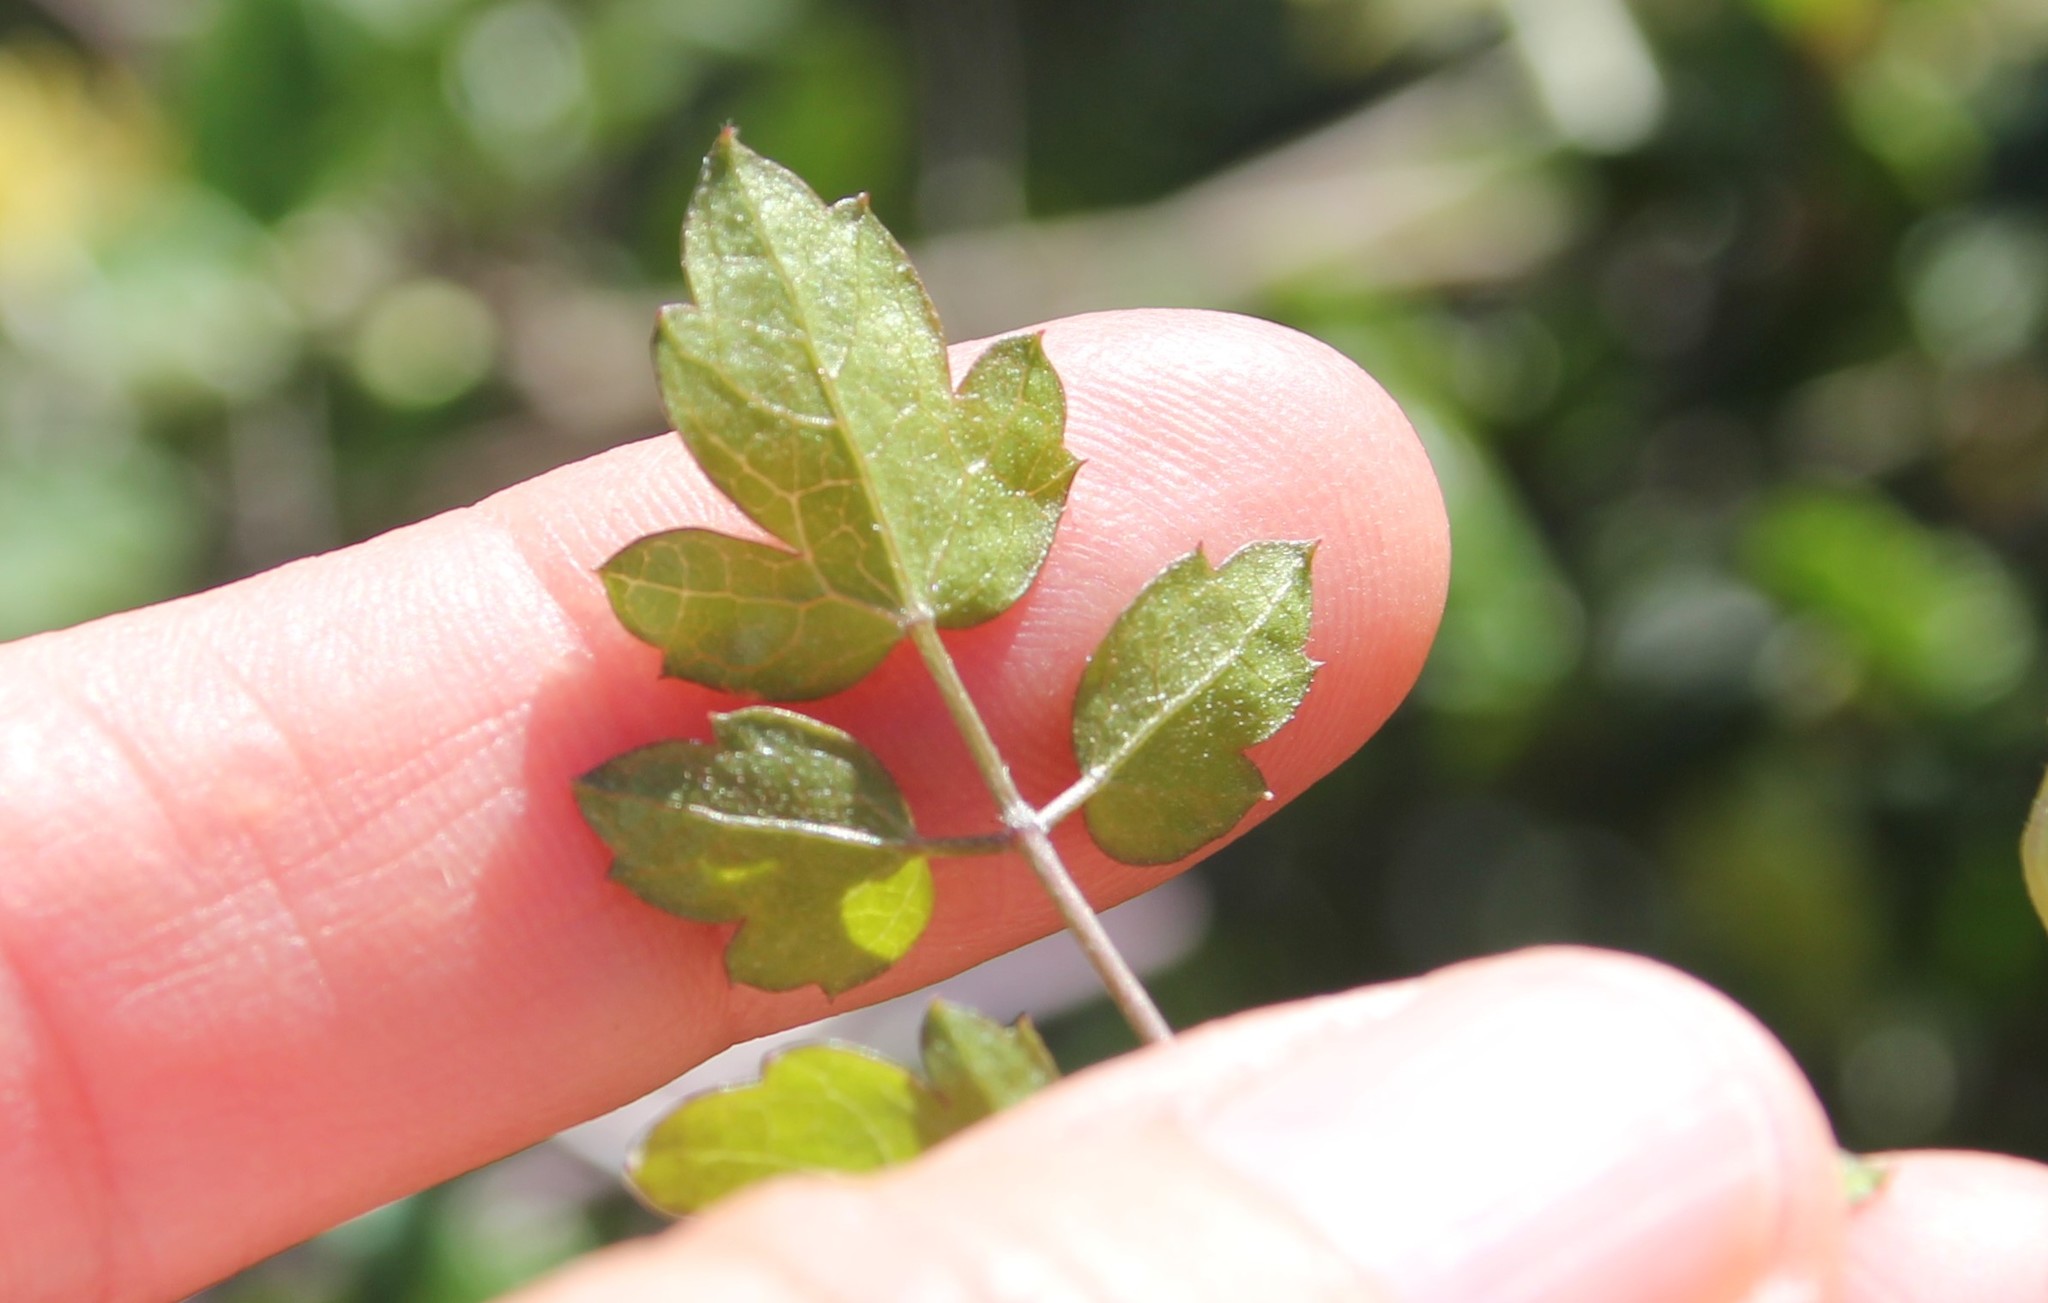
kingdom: Plantae
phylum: Tracheophyta
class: Magnoliopsida
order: Ranunculales
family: Ranunculaceae
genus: Clematis
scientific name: Clematis pauciflora
